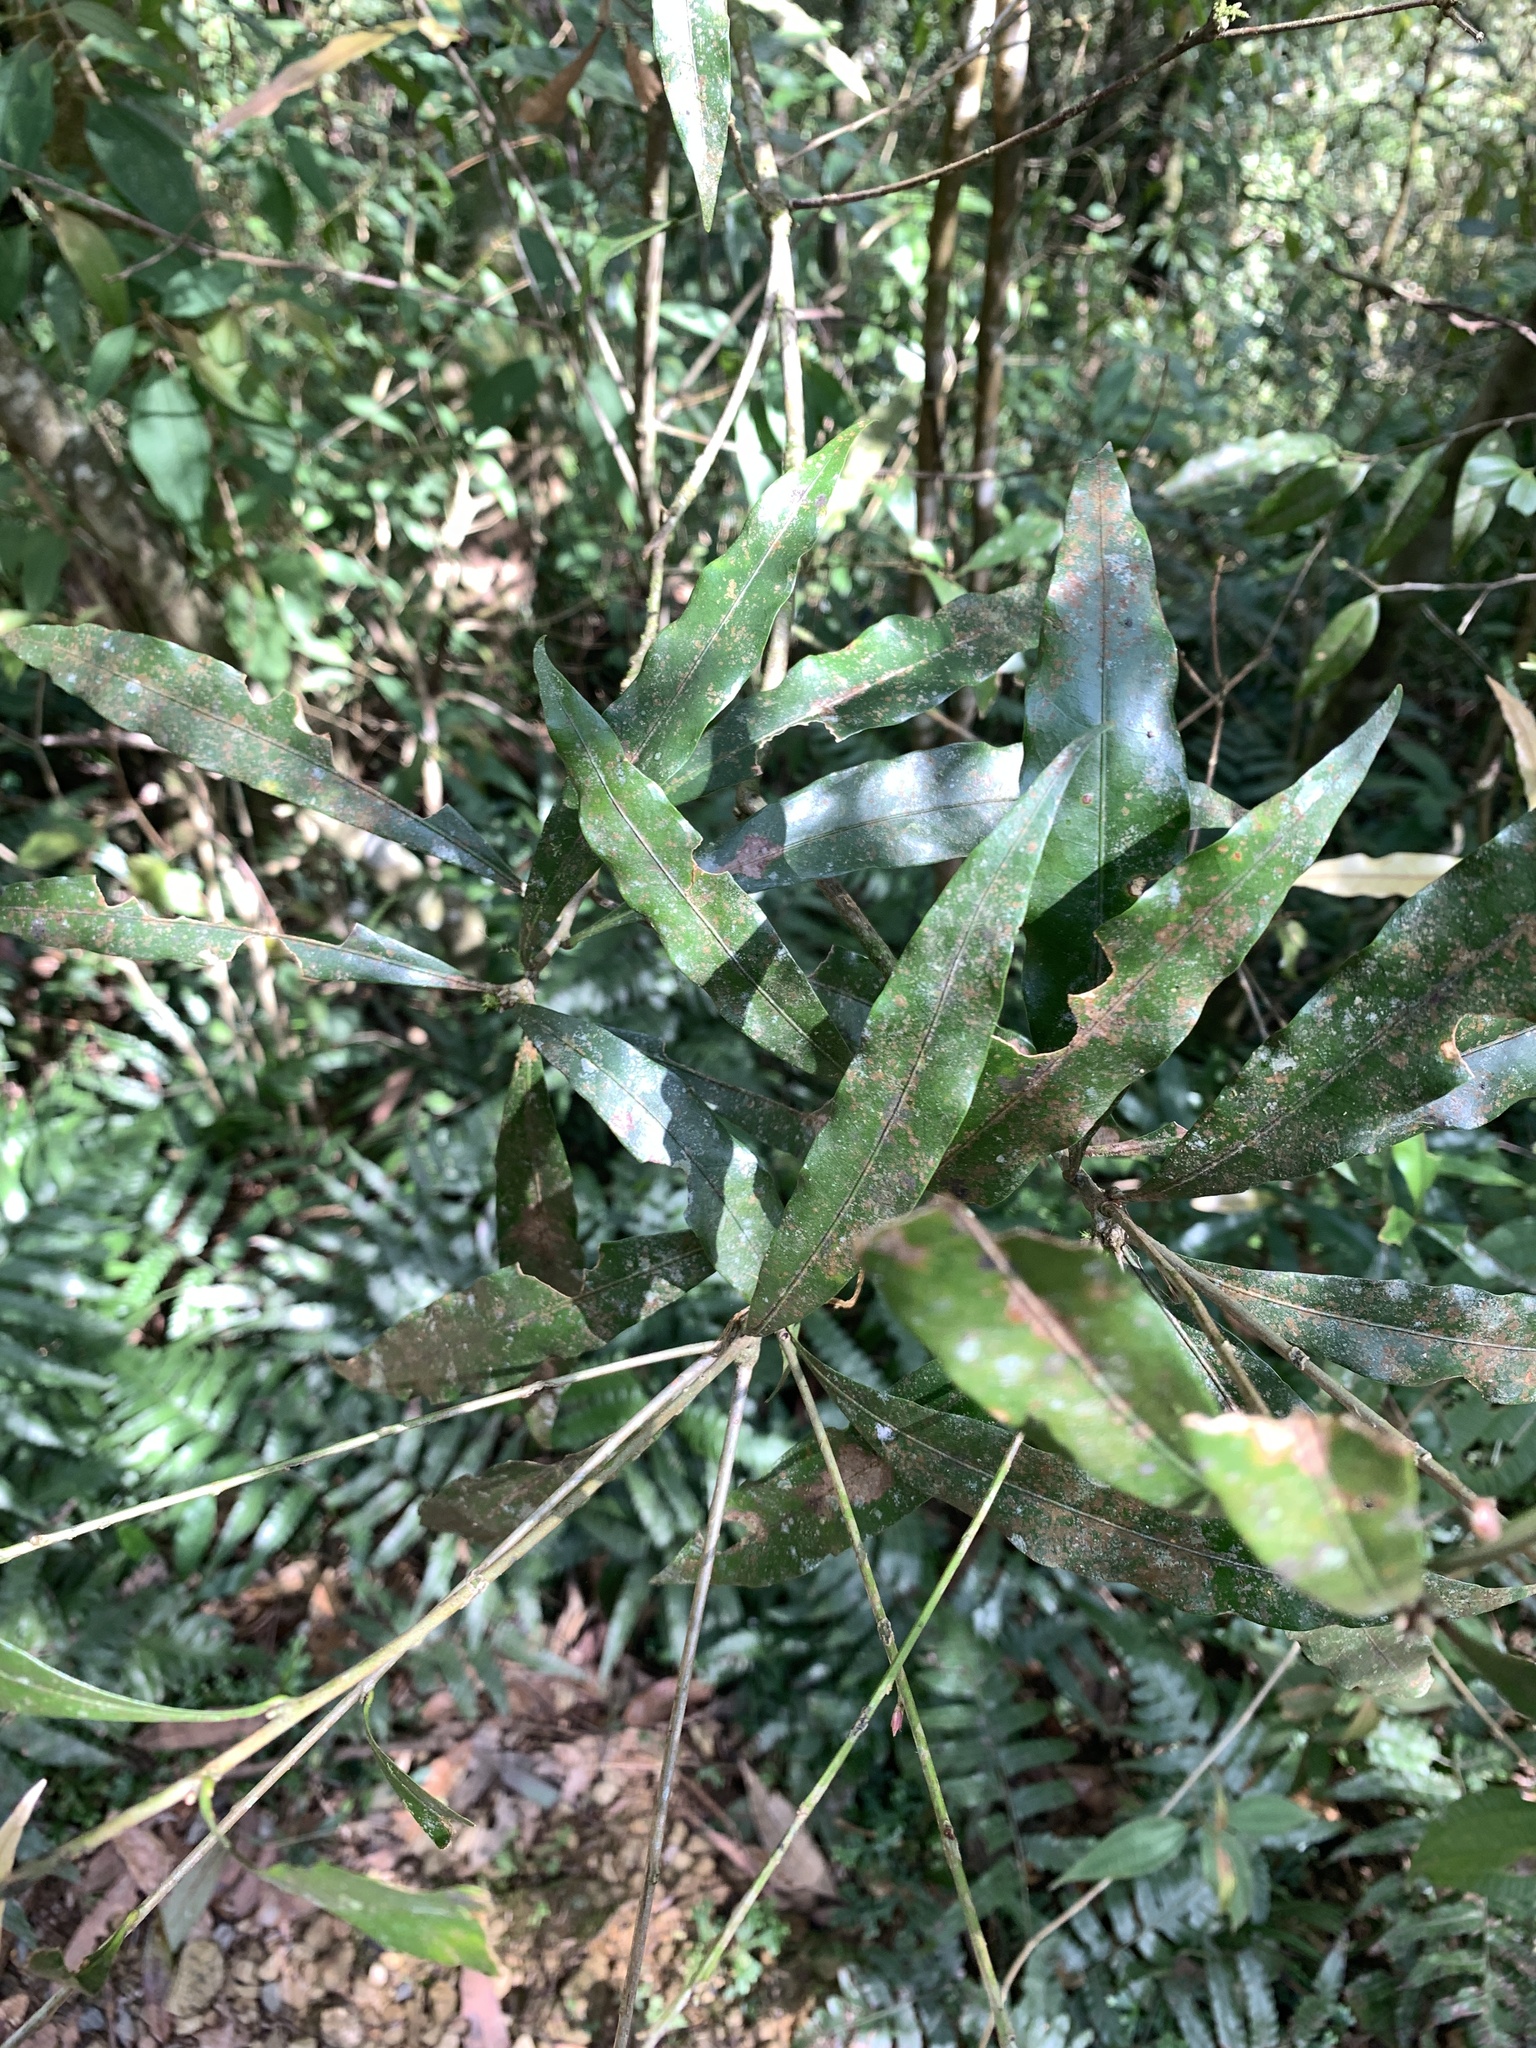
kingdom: Plantae
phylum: Tracheophyta
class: Magnoliopsida
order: Fagales
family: Fagaceae
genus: Lithocarpus
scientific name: Lithocarpus hancei
